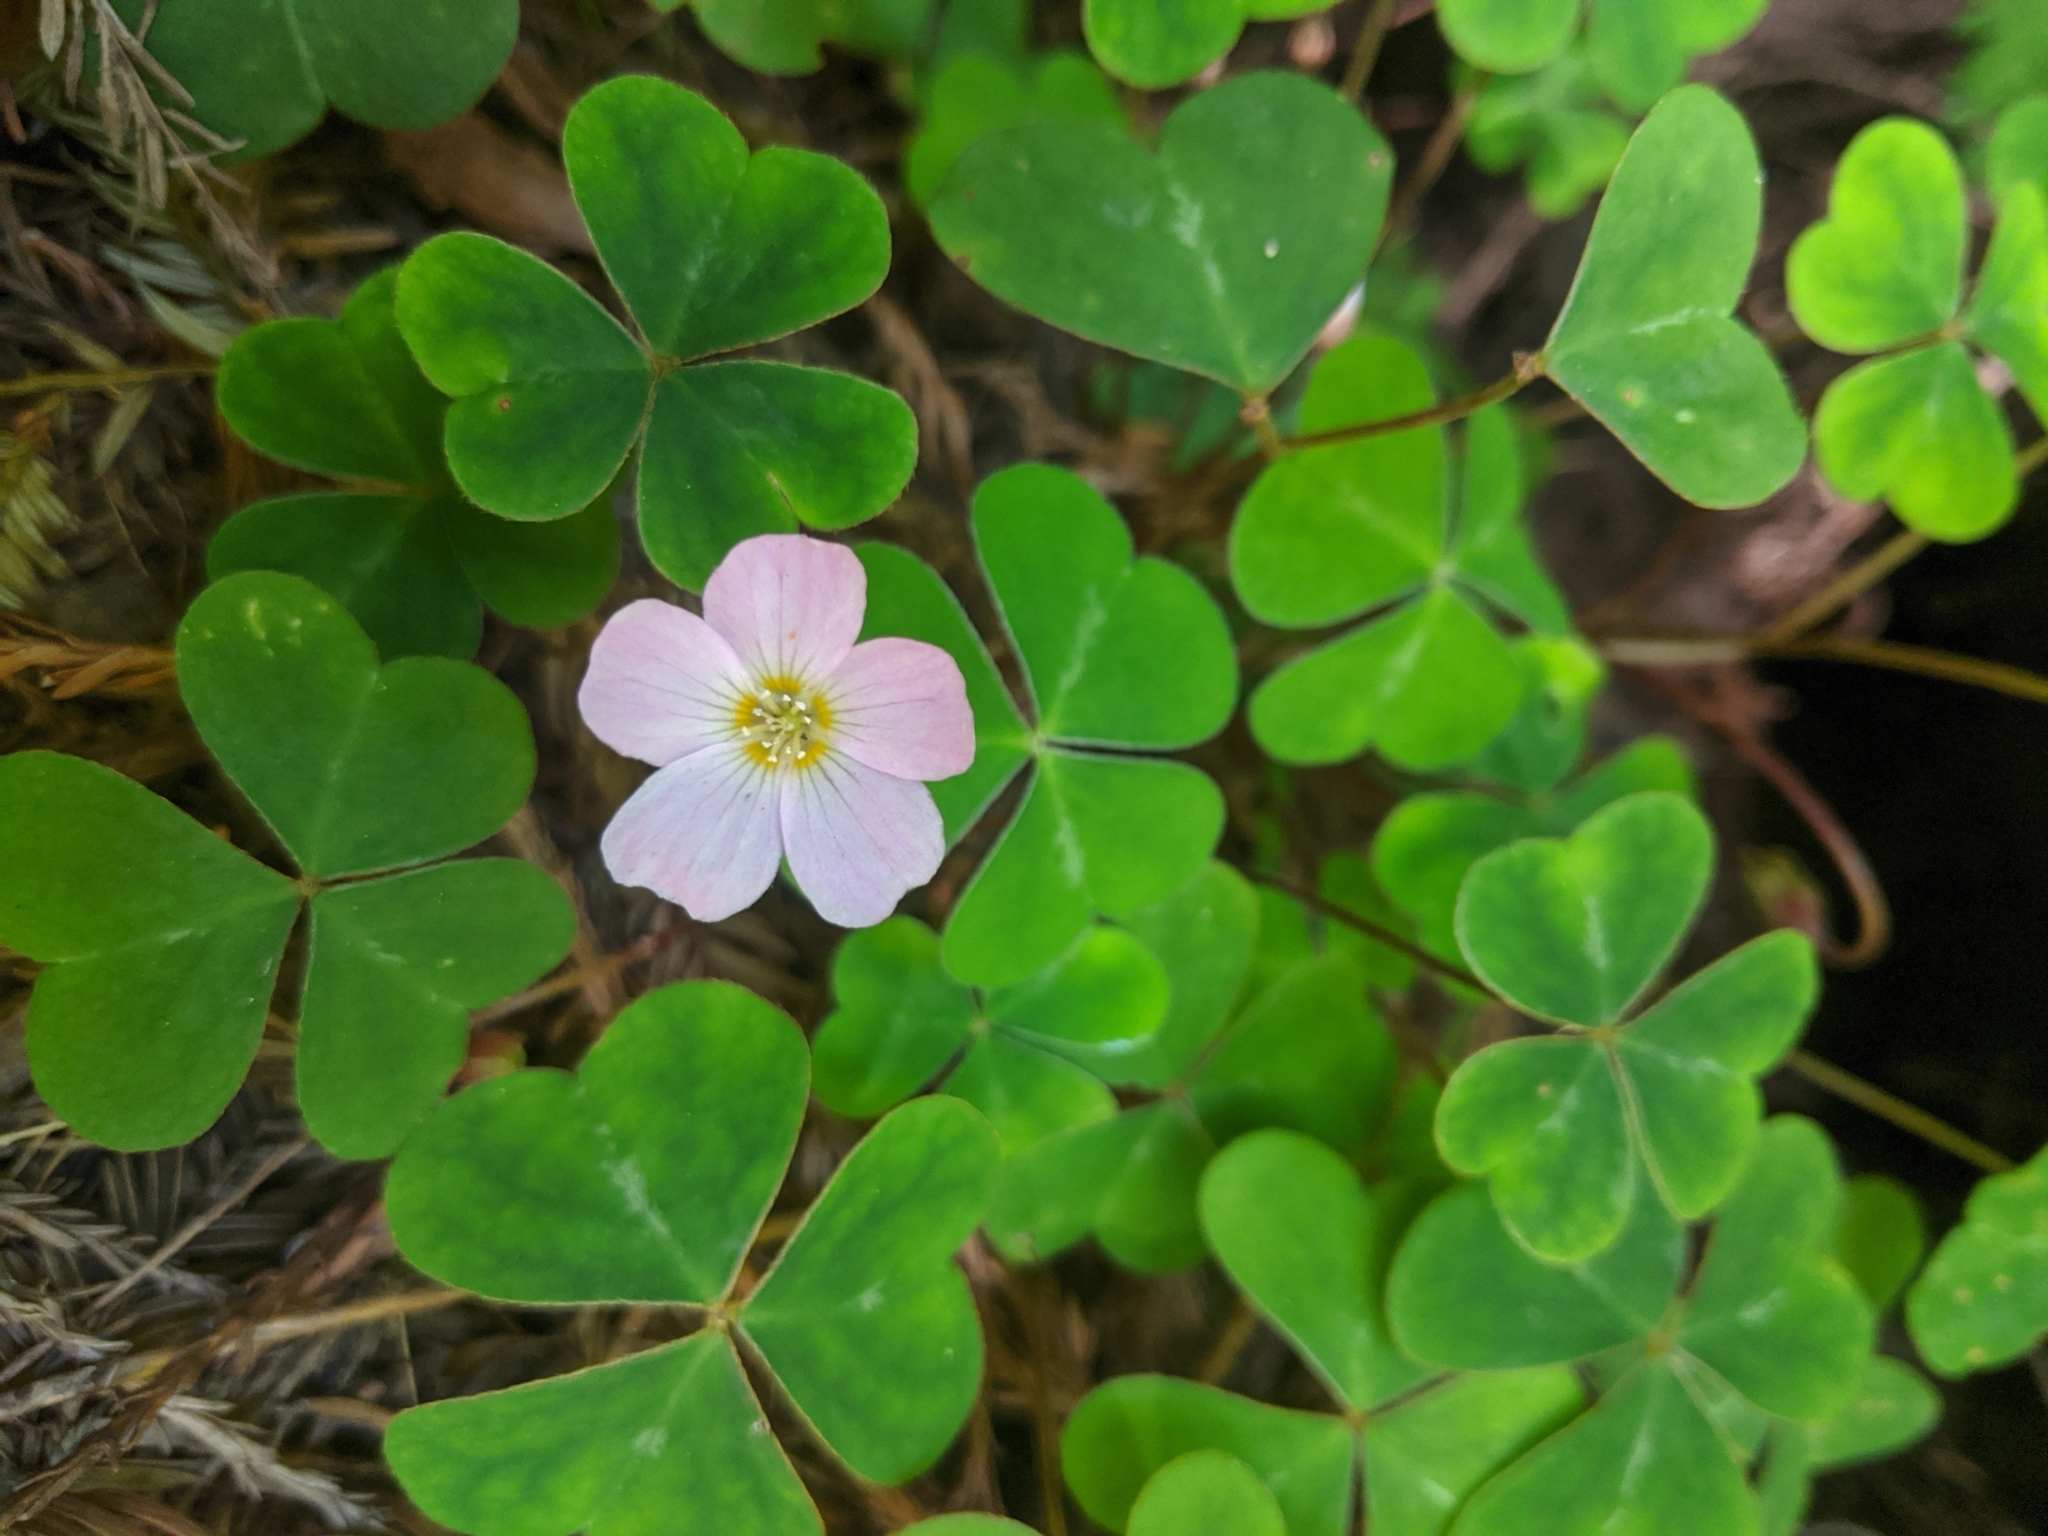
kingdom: Plantae
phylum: Tracheophyta
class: Magnoliopsida
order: Oxalidales
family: Oxalidaceae
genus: Oxalis
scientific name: Oxalis oregana
